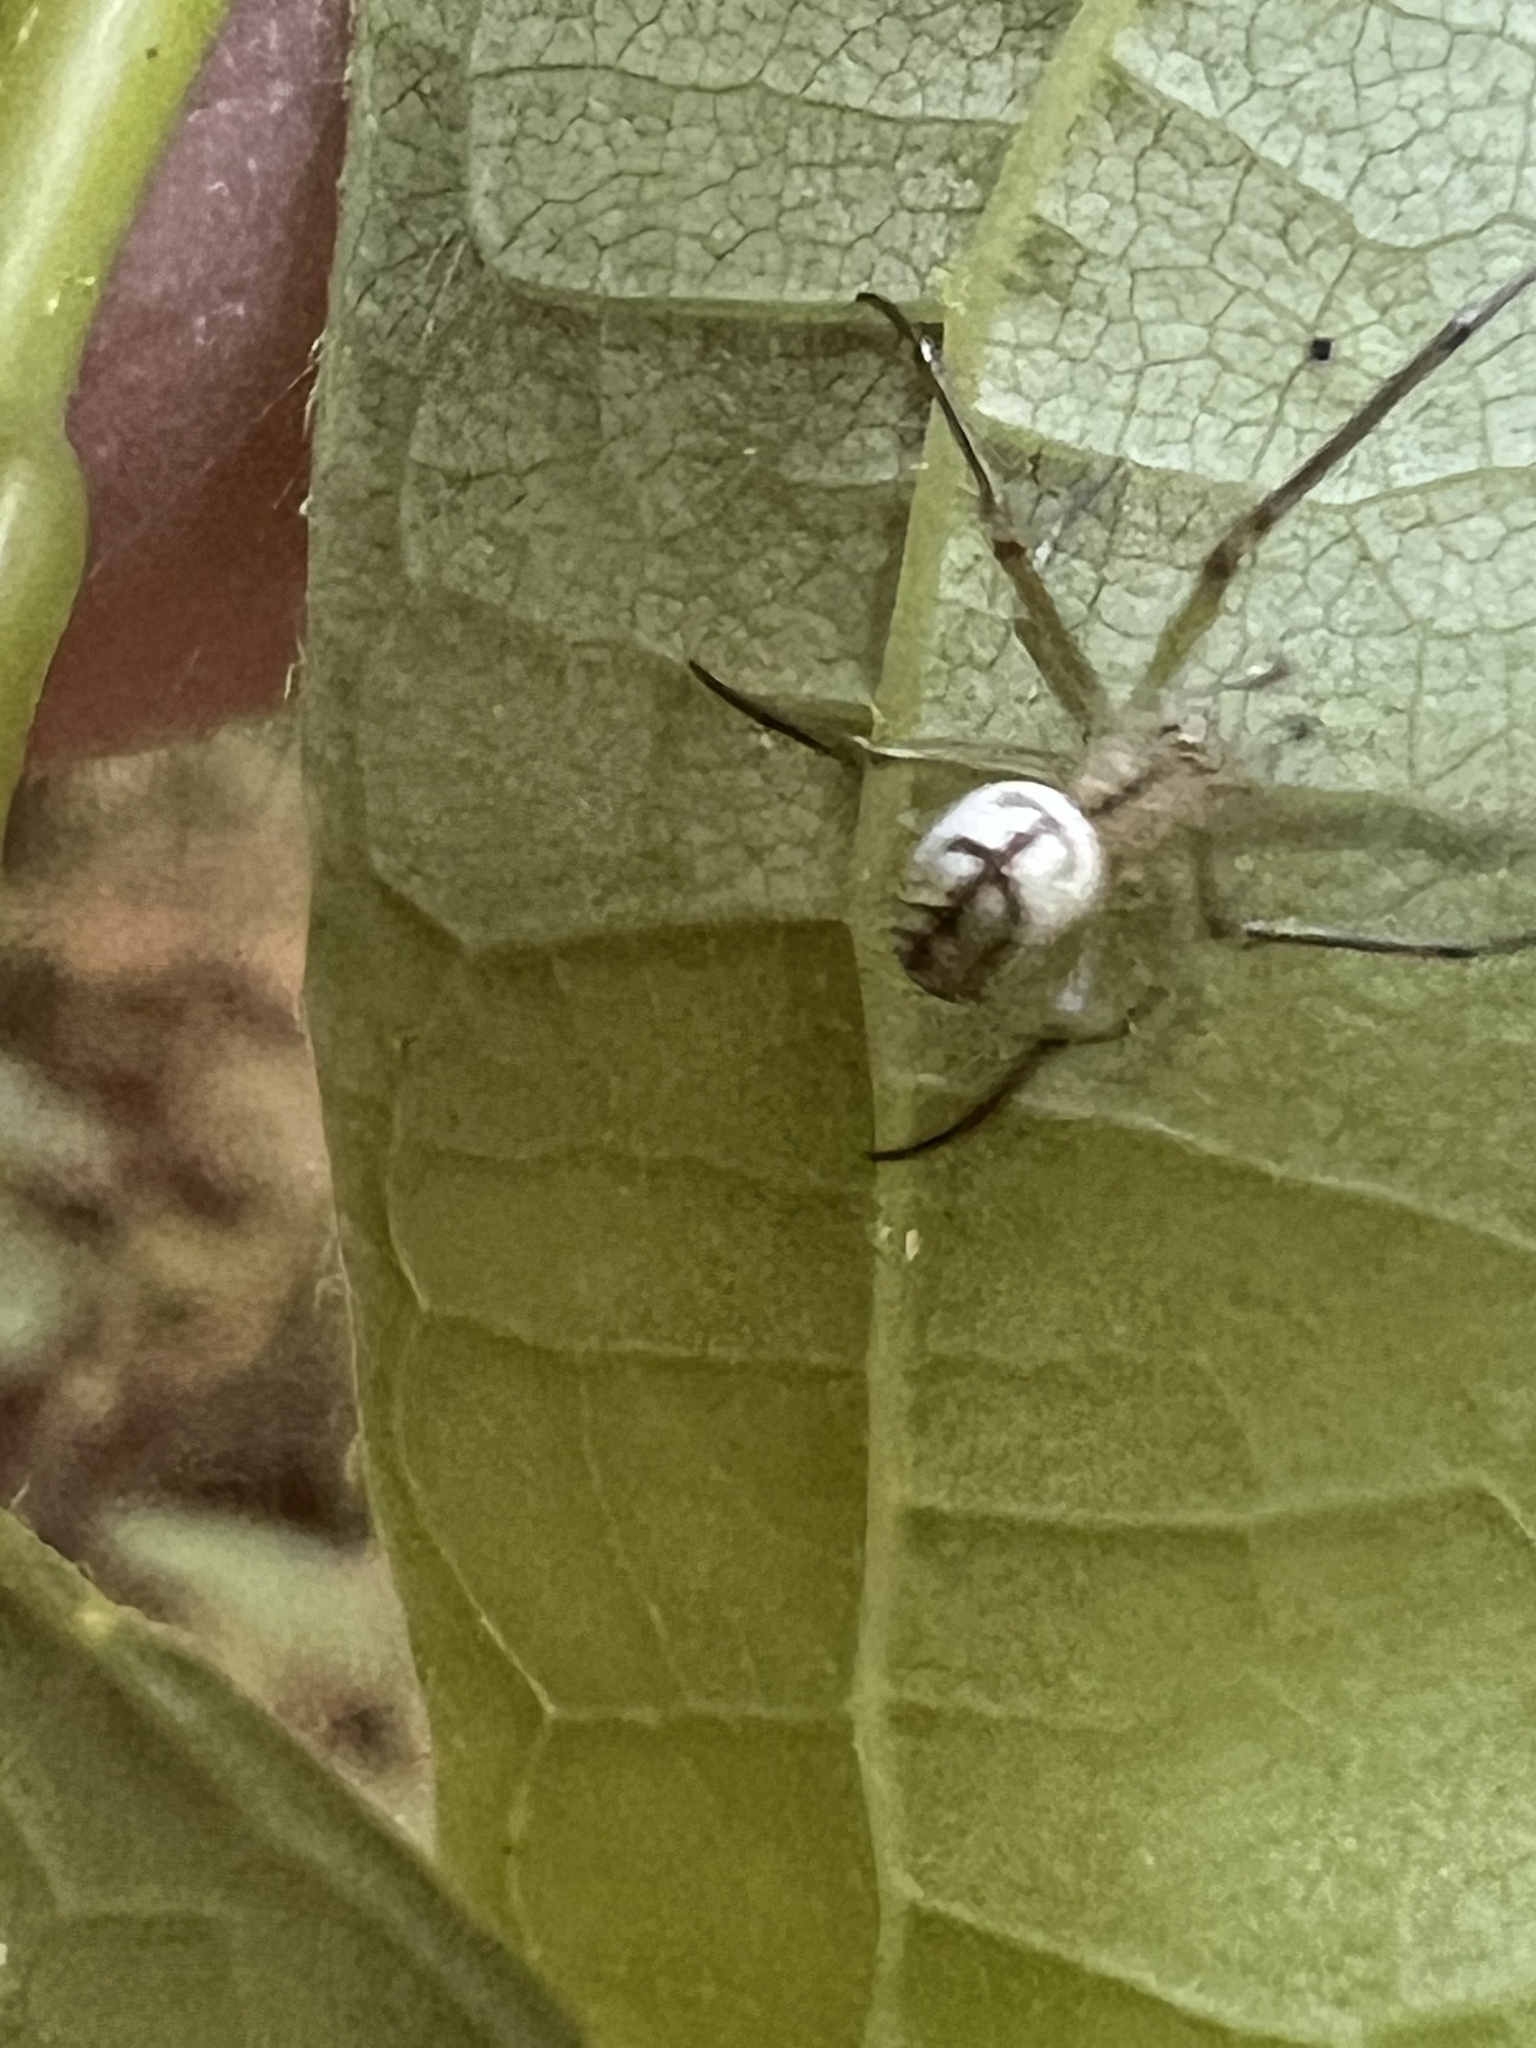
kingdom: Animalia
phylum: Arthropoda
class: Arachnida
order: Araneae
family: Tetragnathidae
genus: Leucauge
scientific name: Leucauge venusta
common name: Longjawed orb weavers
